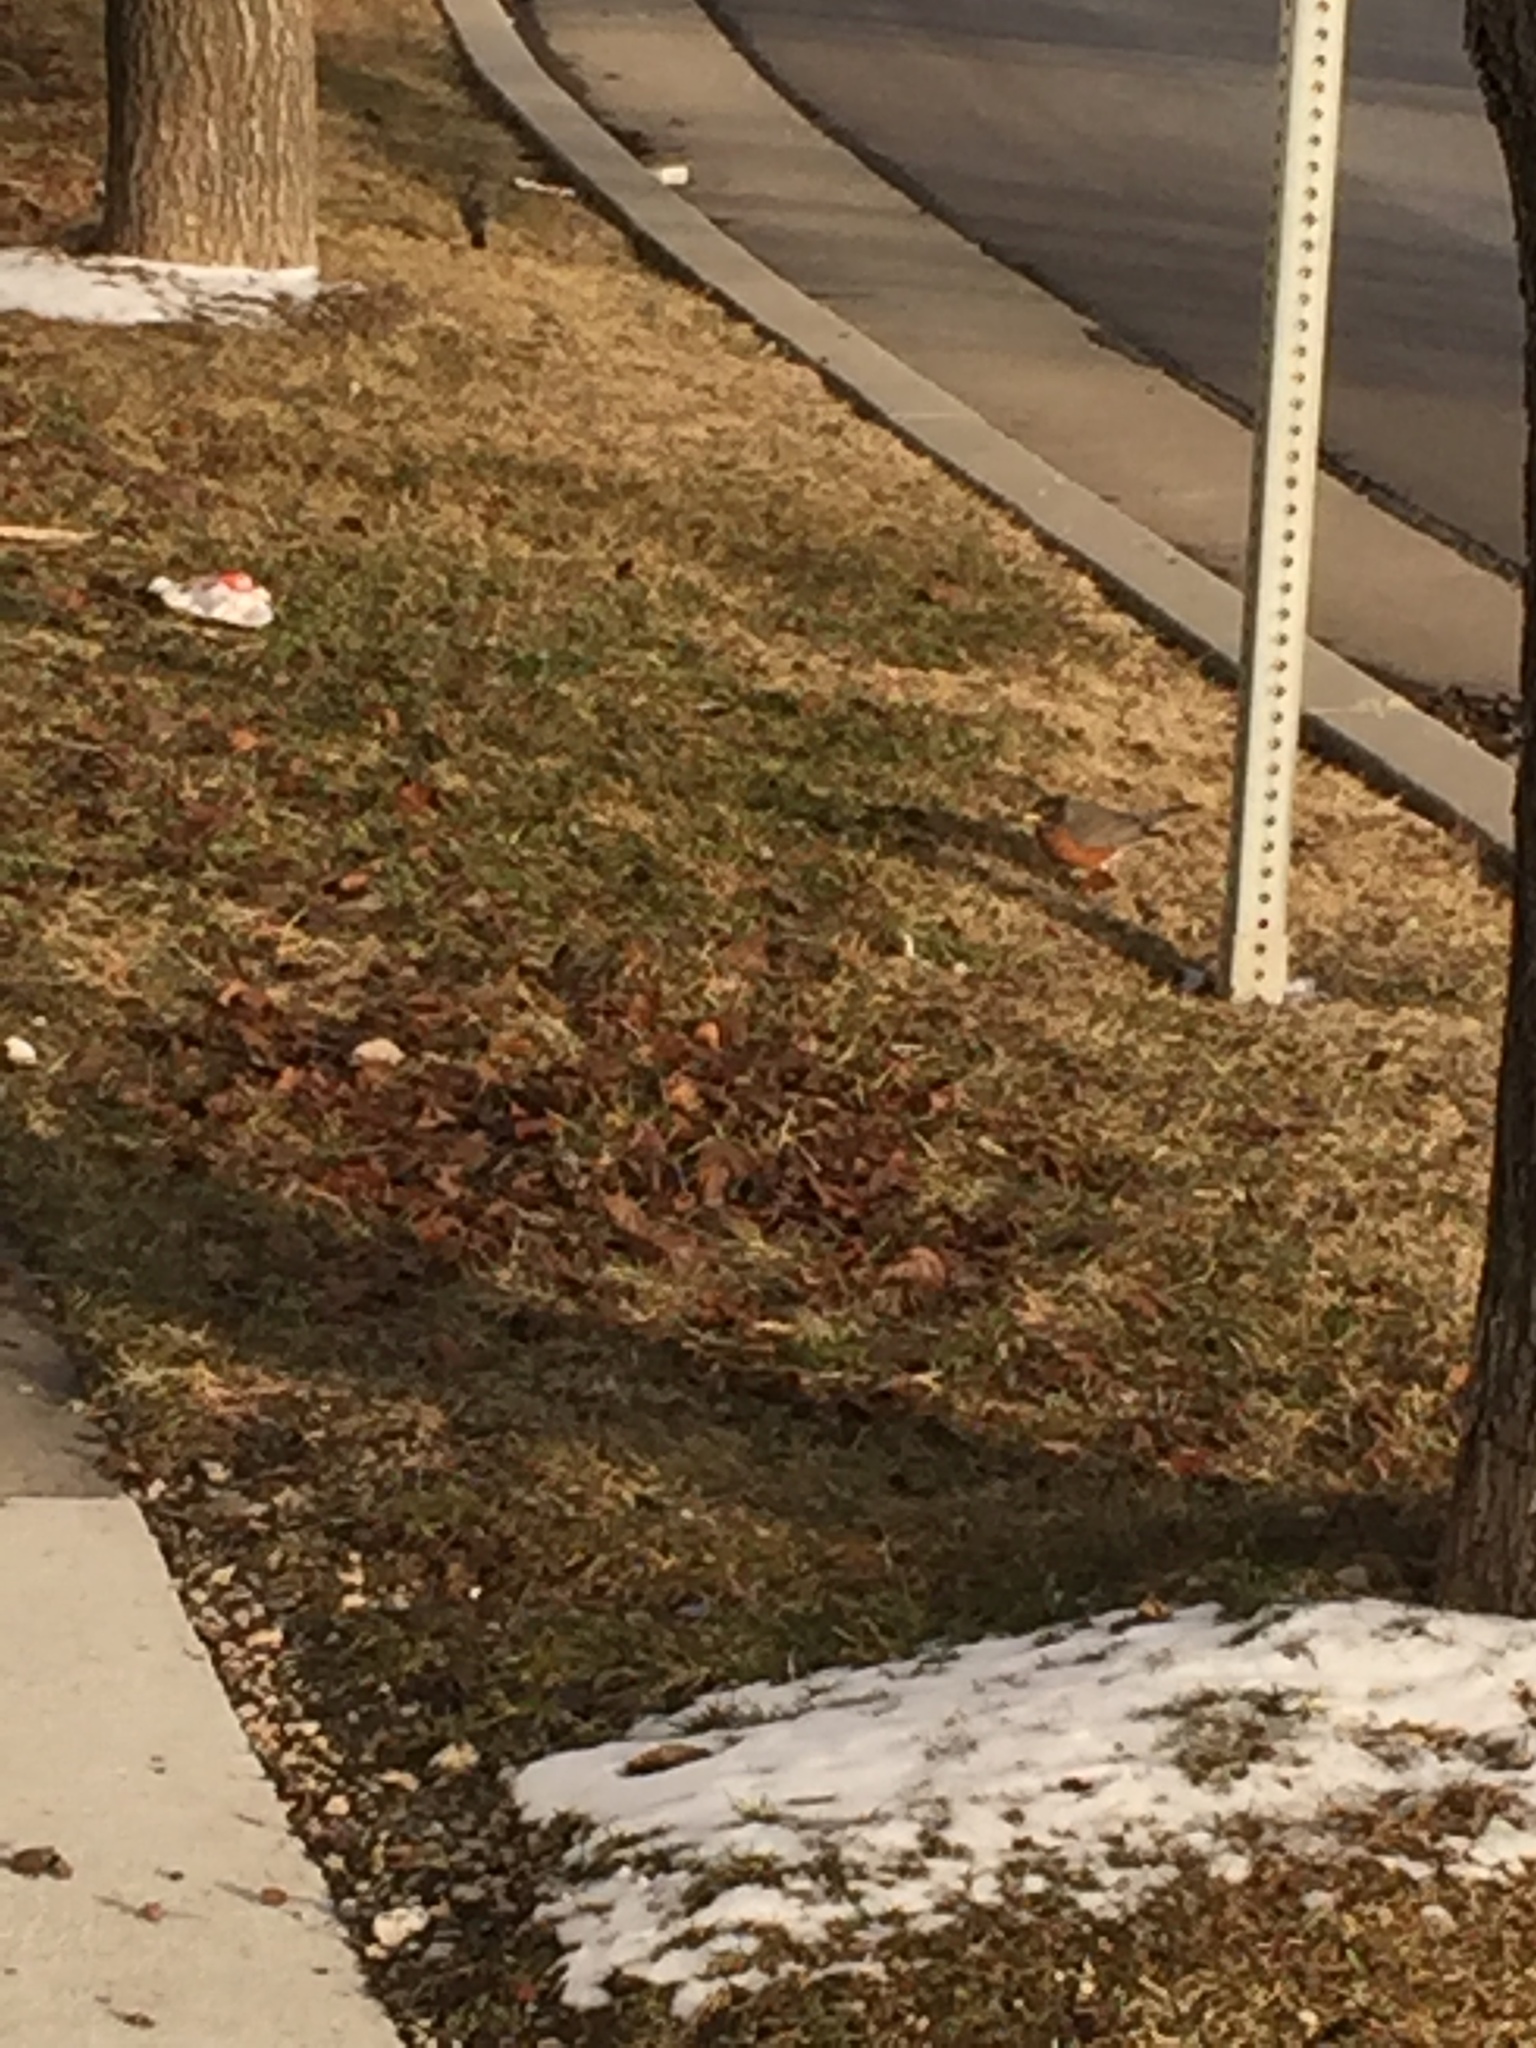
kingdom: Animalia
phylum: Chordata
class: Aves
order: Passeriformes
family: Turdidae
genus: Turdus
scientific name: Turdus migratorius
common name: American robin
